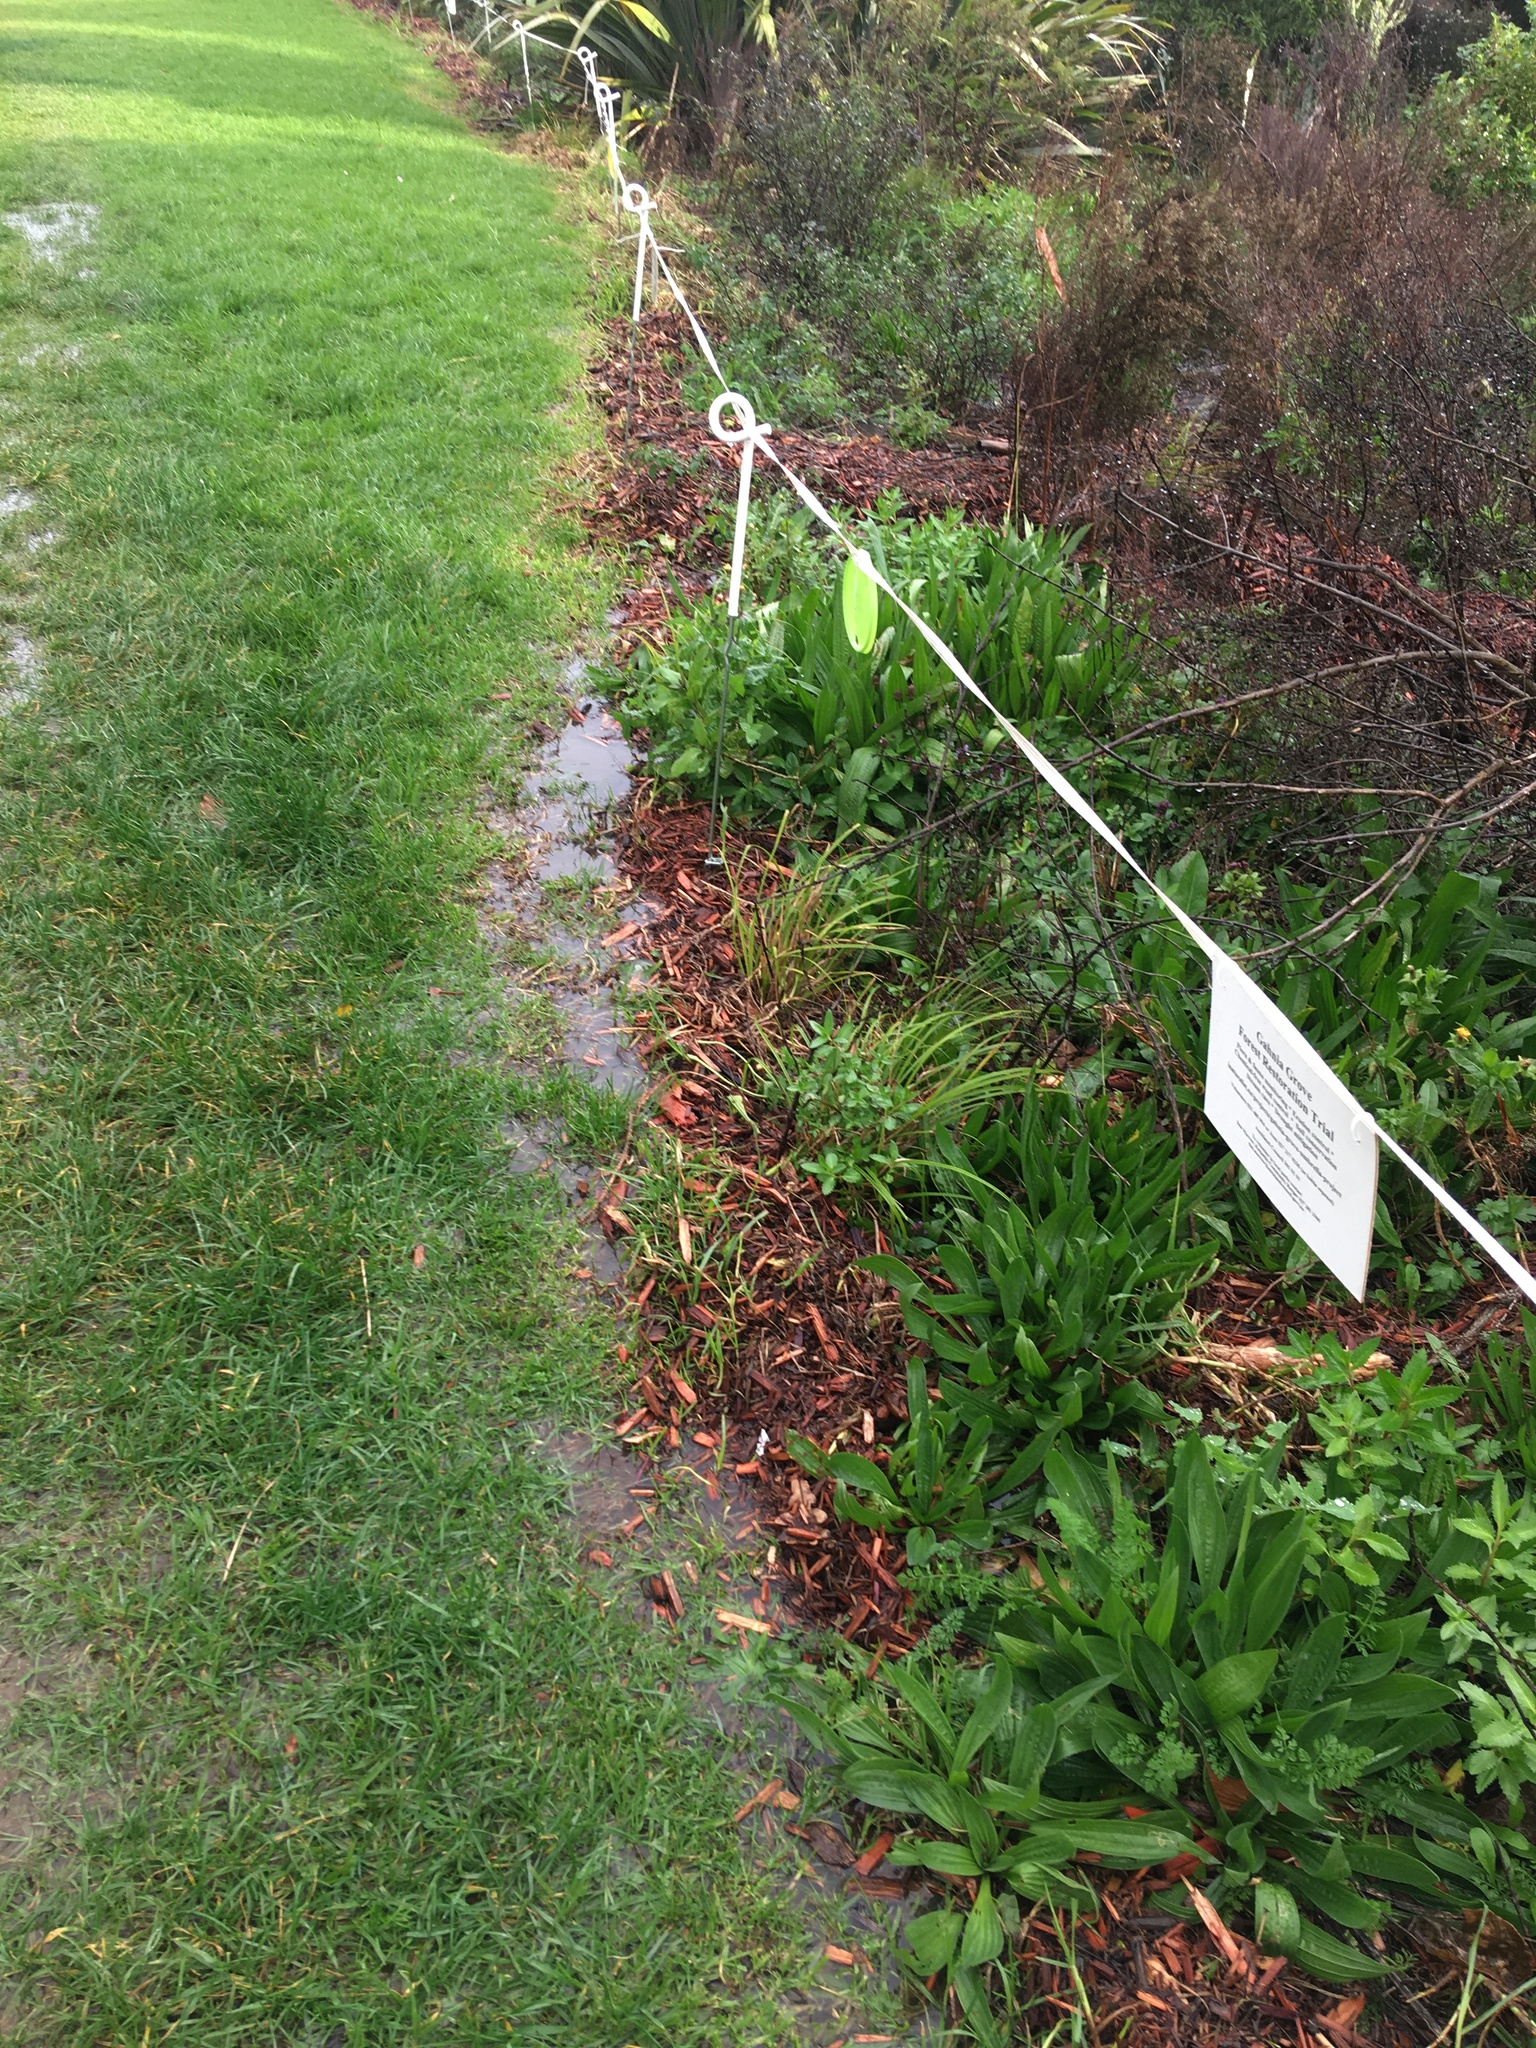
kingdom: Plantae
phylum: Tracheophyta
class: Magnoliopsida
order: Lamiales
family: Plantaginaceae
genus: Plantago
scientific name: Plantago lanceolata
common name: Ribwort plantain
